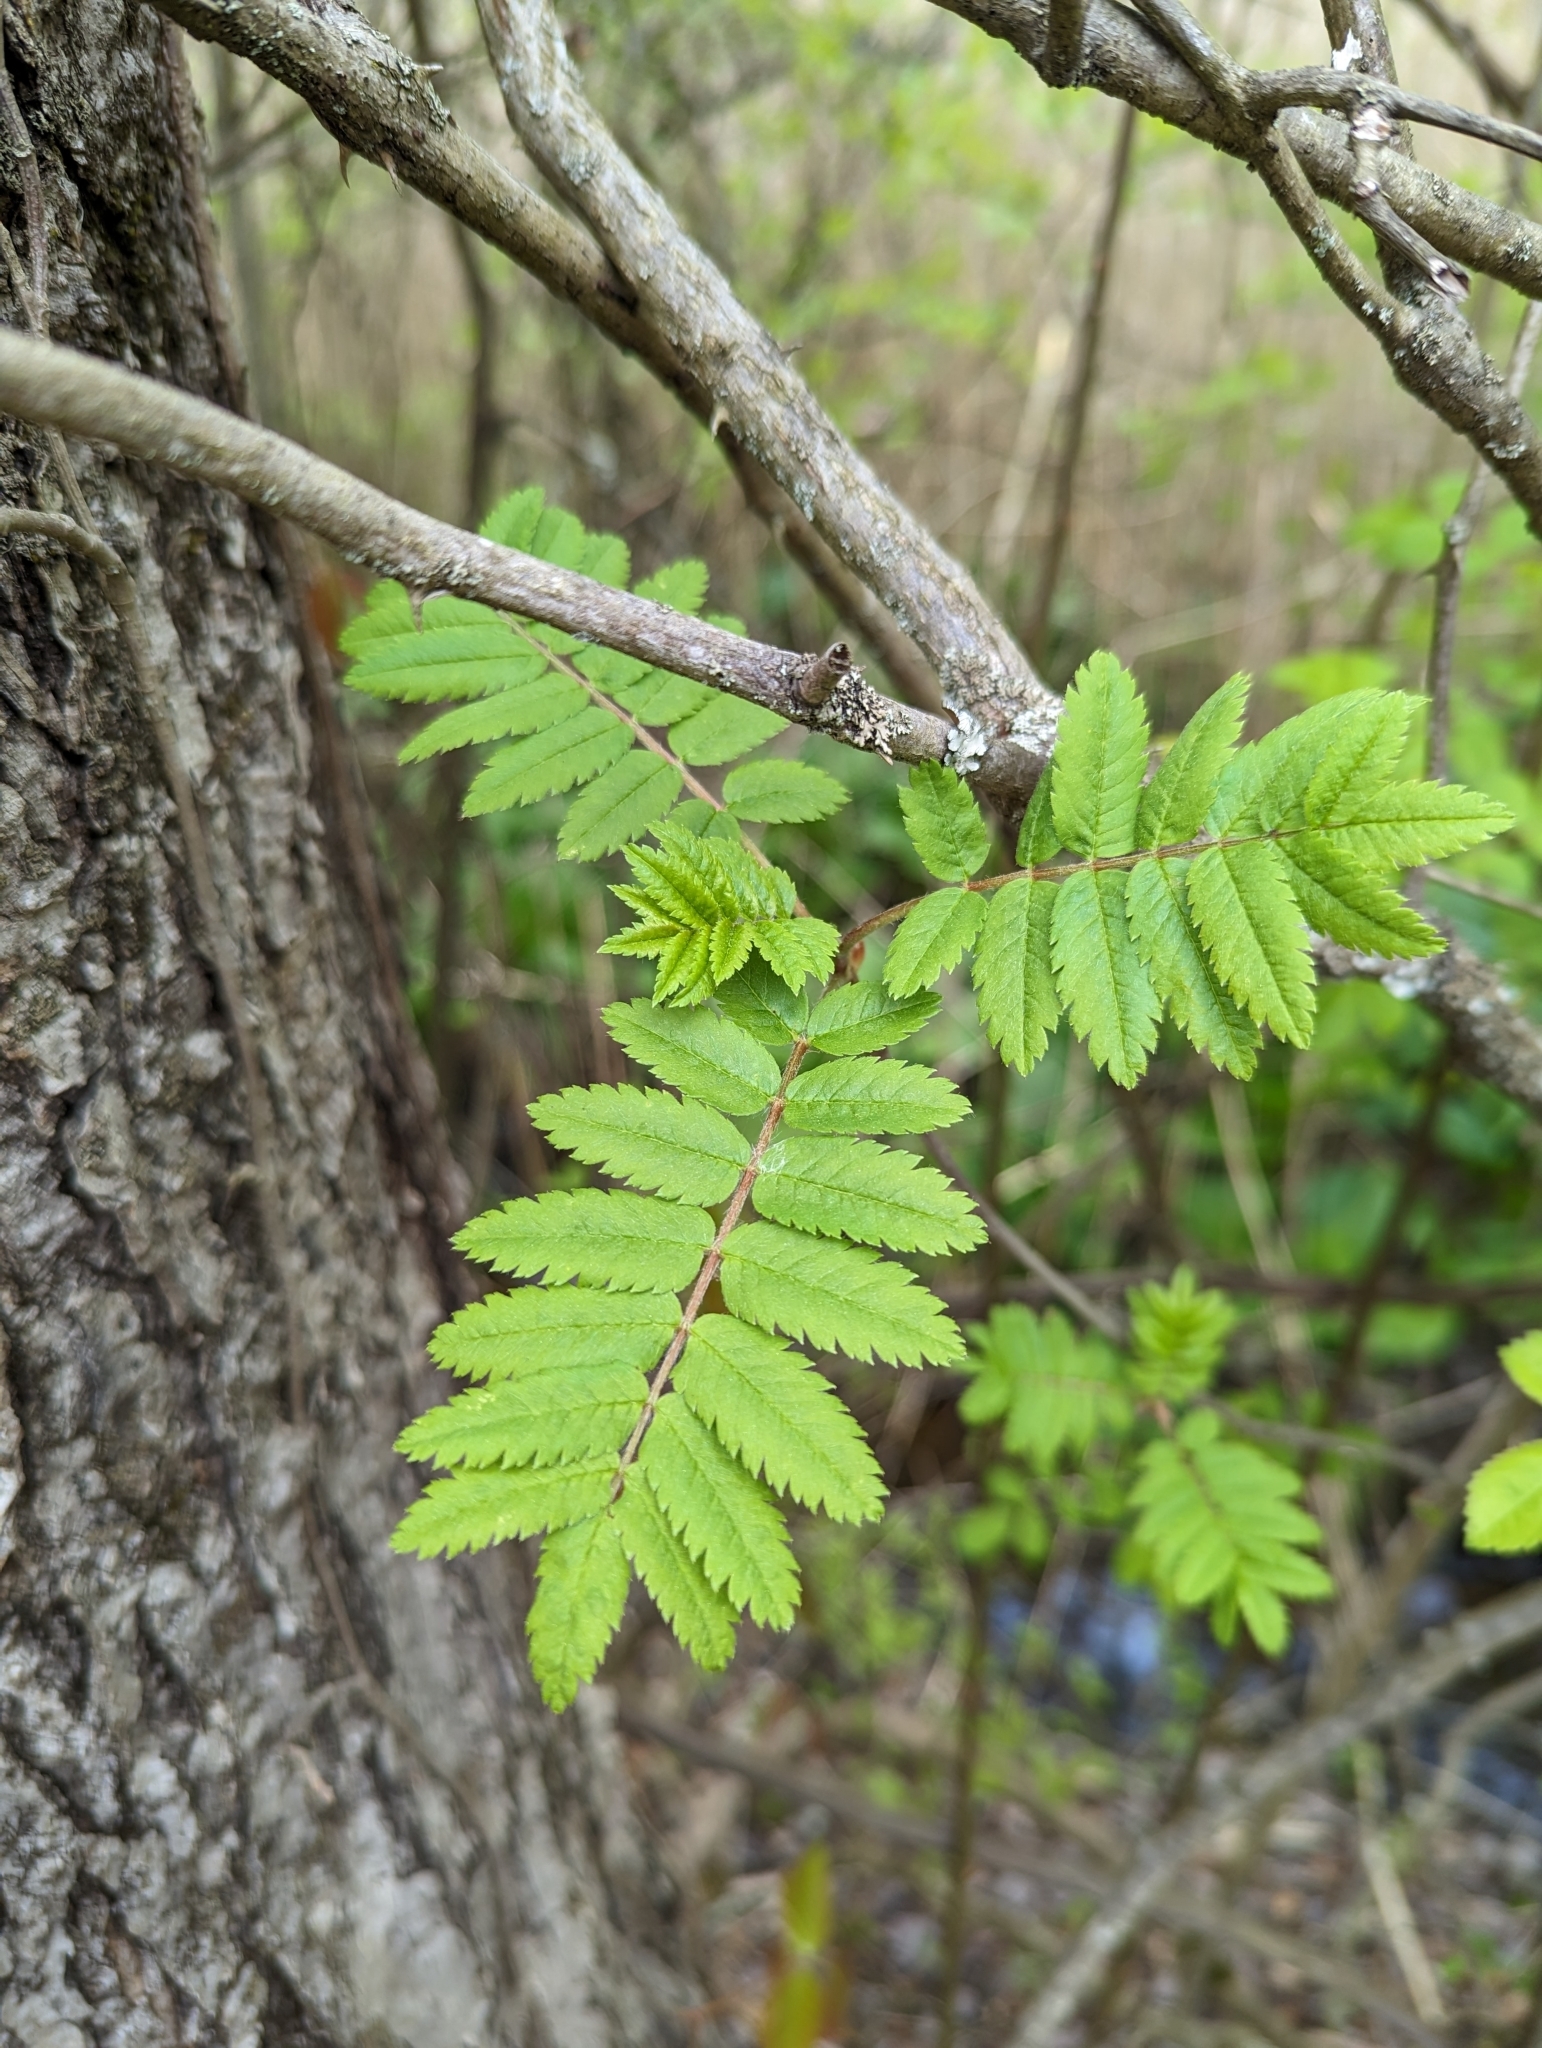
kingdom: Plantae
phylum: Tracheophyta
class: Magnoliopsida
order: Rosales
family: Rosaceae
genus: Sorbus
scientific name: Sorbus aucuparia
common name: Rowan
